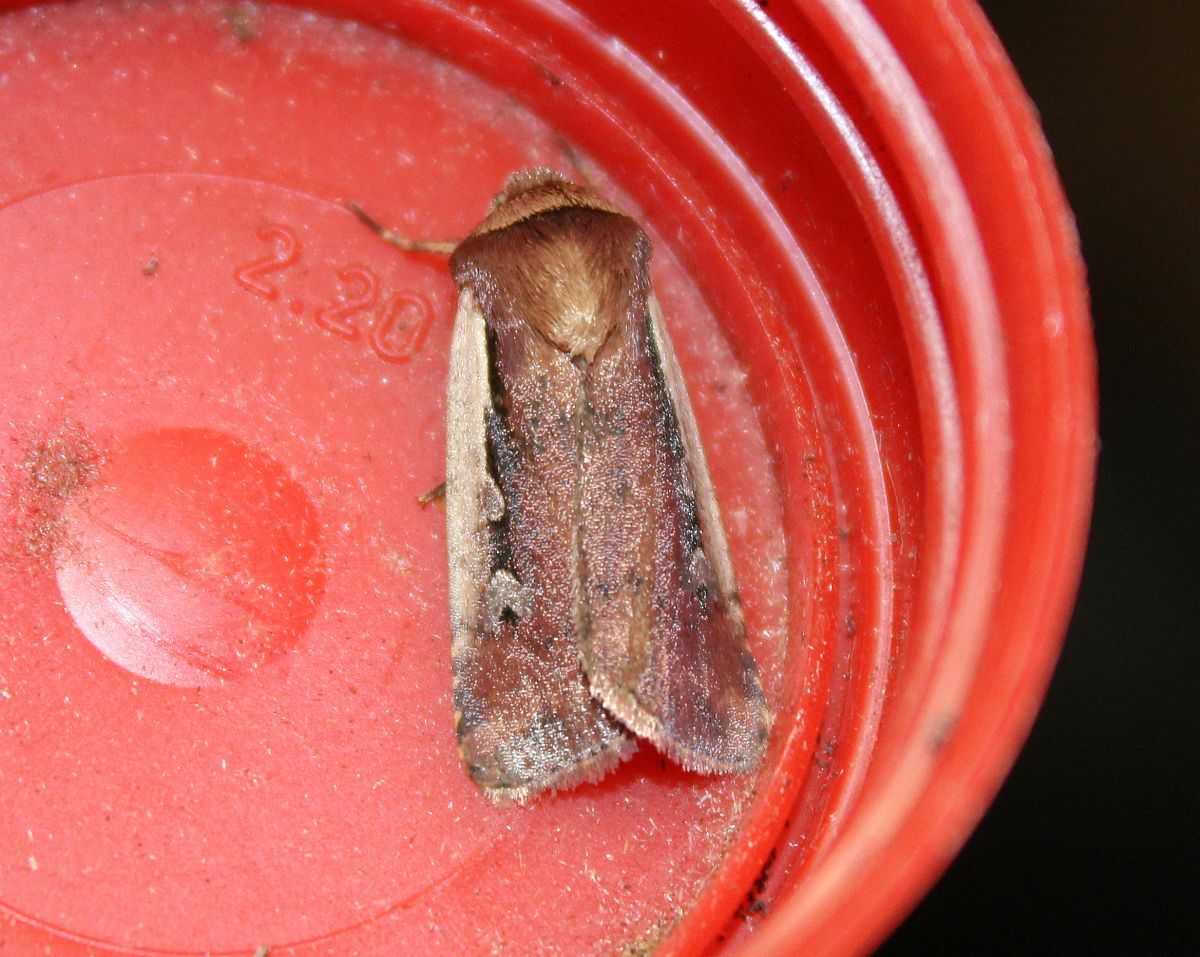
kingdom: Animalia
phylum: Arthropoda
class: Insecta
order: Lepidoptera
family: Noctuidae
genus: Ochropleura
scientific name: Ochropleura plecta
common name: Flame shoulder
